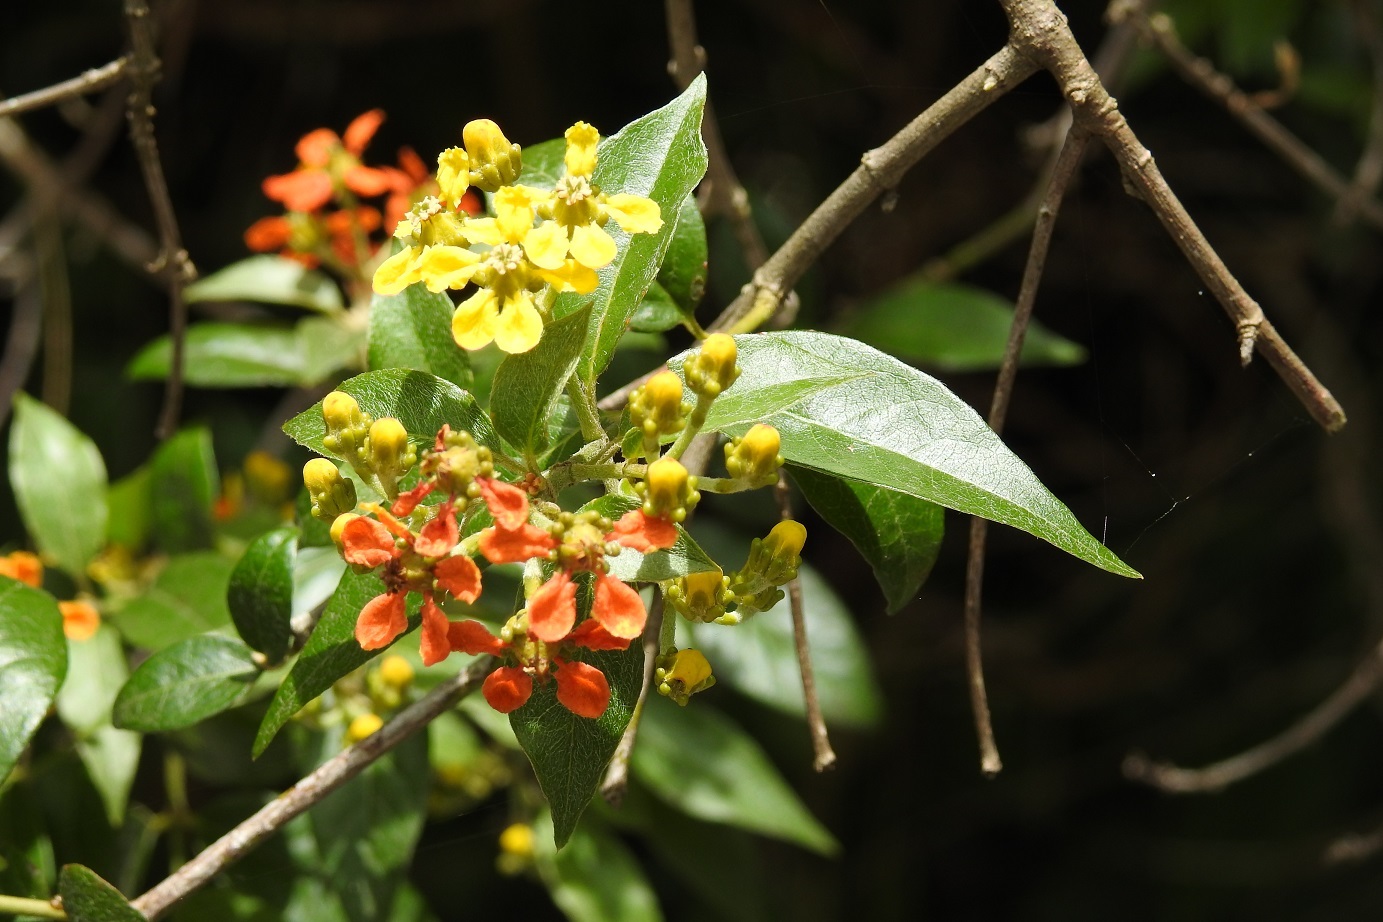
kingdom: Plantae
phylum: Tracheophyta
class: Magnoliopsida
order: Malpighiales
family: Malpighiaceae
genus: Tetrapterys
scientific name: Tetrapterys schiedeana
